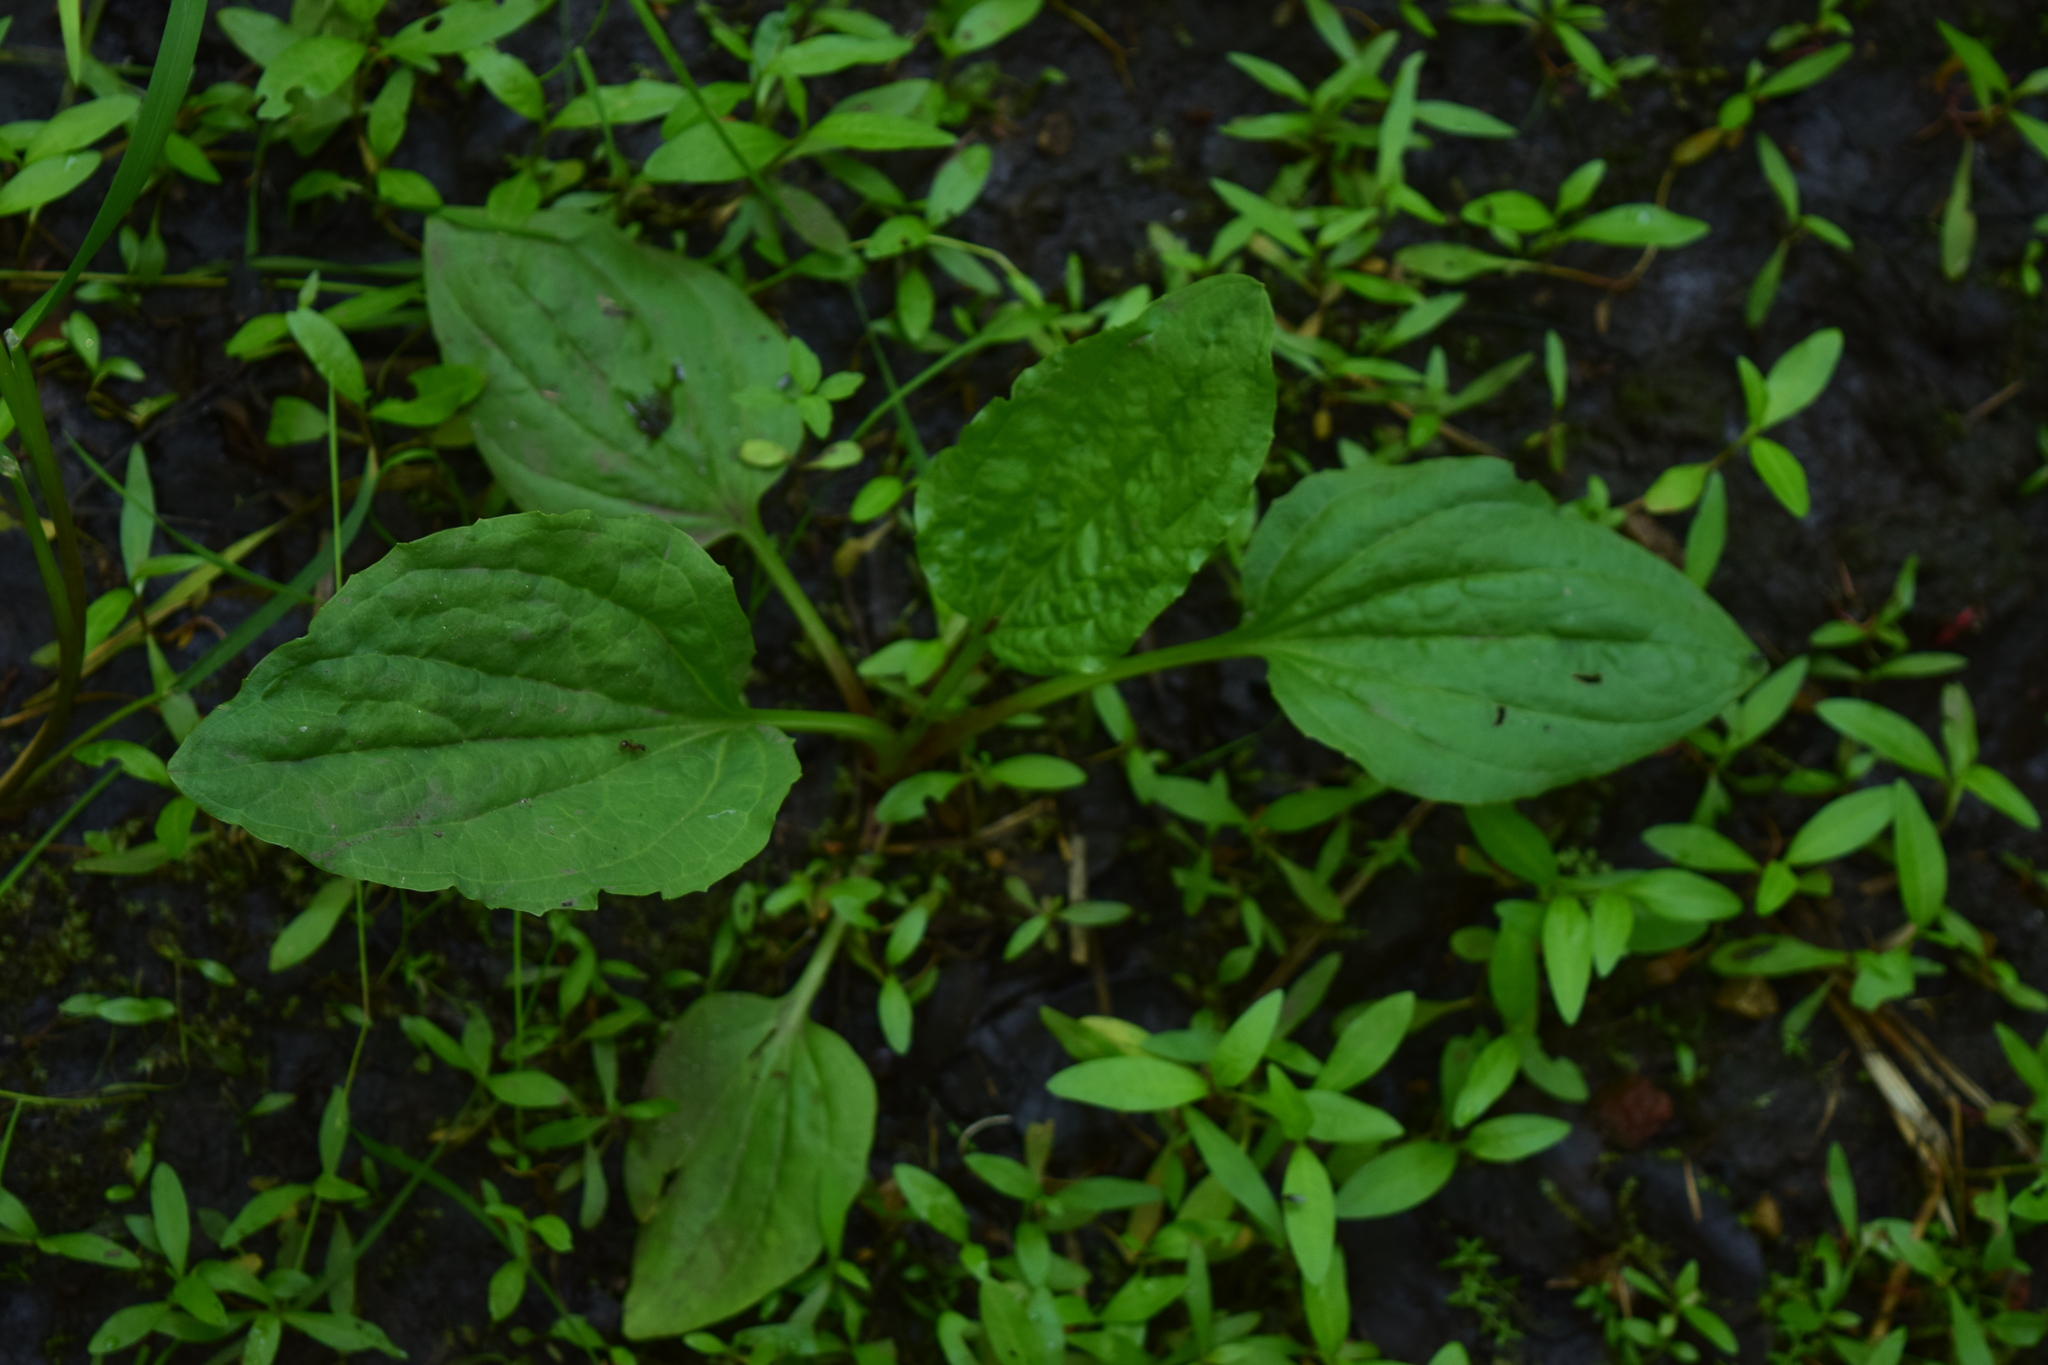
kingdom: Plantae
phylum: Tracheophyta
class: Magnoliopsida
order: Lamiales
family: Plantaginaceae
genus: Plantago
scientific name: Plantago major
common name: Common plantain
